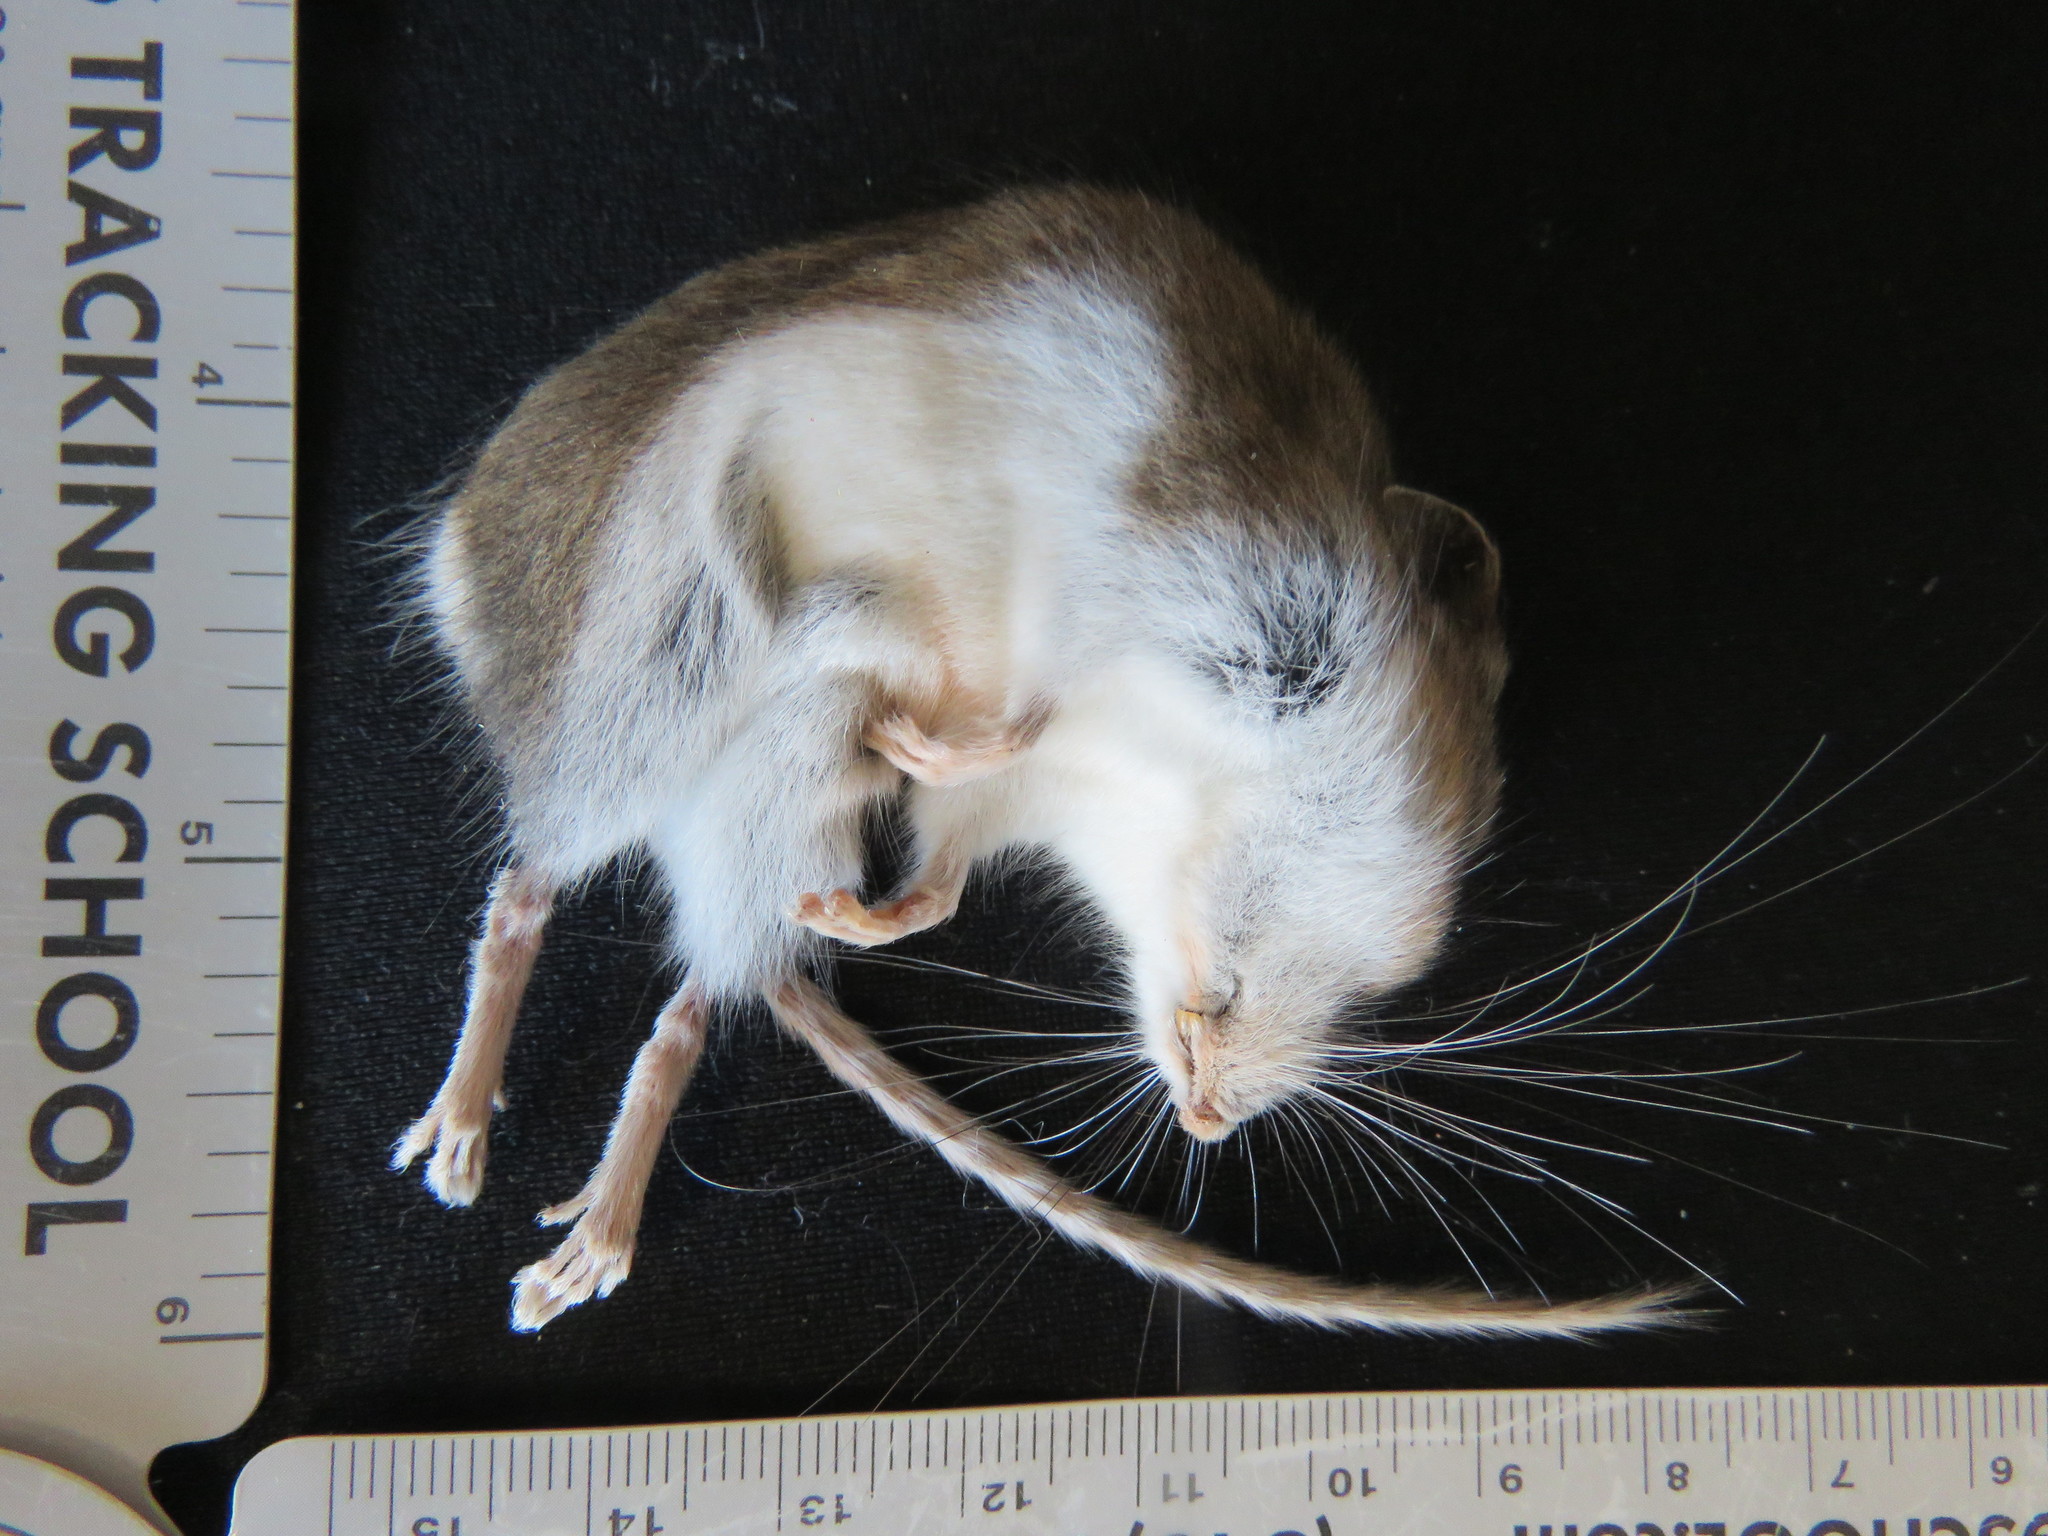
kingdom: Animalia
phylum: Chordata
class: Mammalia
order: Rodentia
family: Cricetidae
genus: Peromyscus
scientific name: Peromyscus maniculatus
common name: Deer mouse
